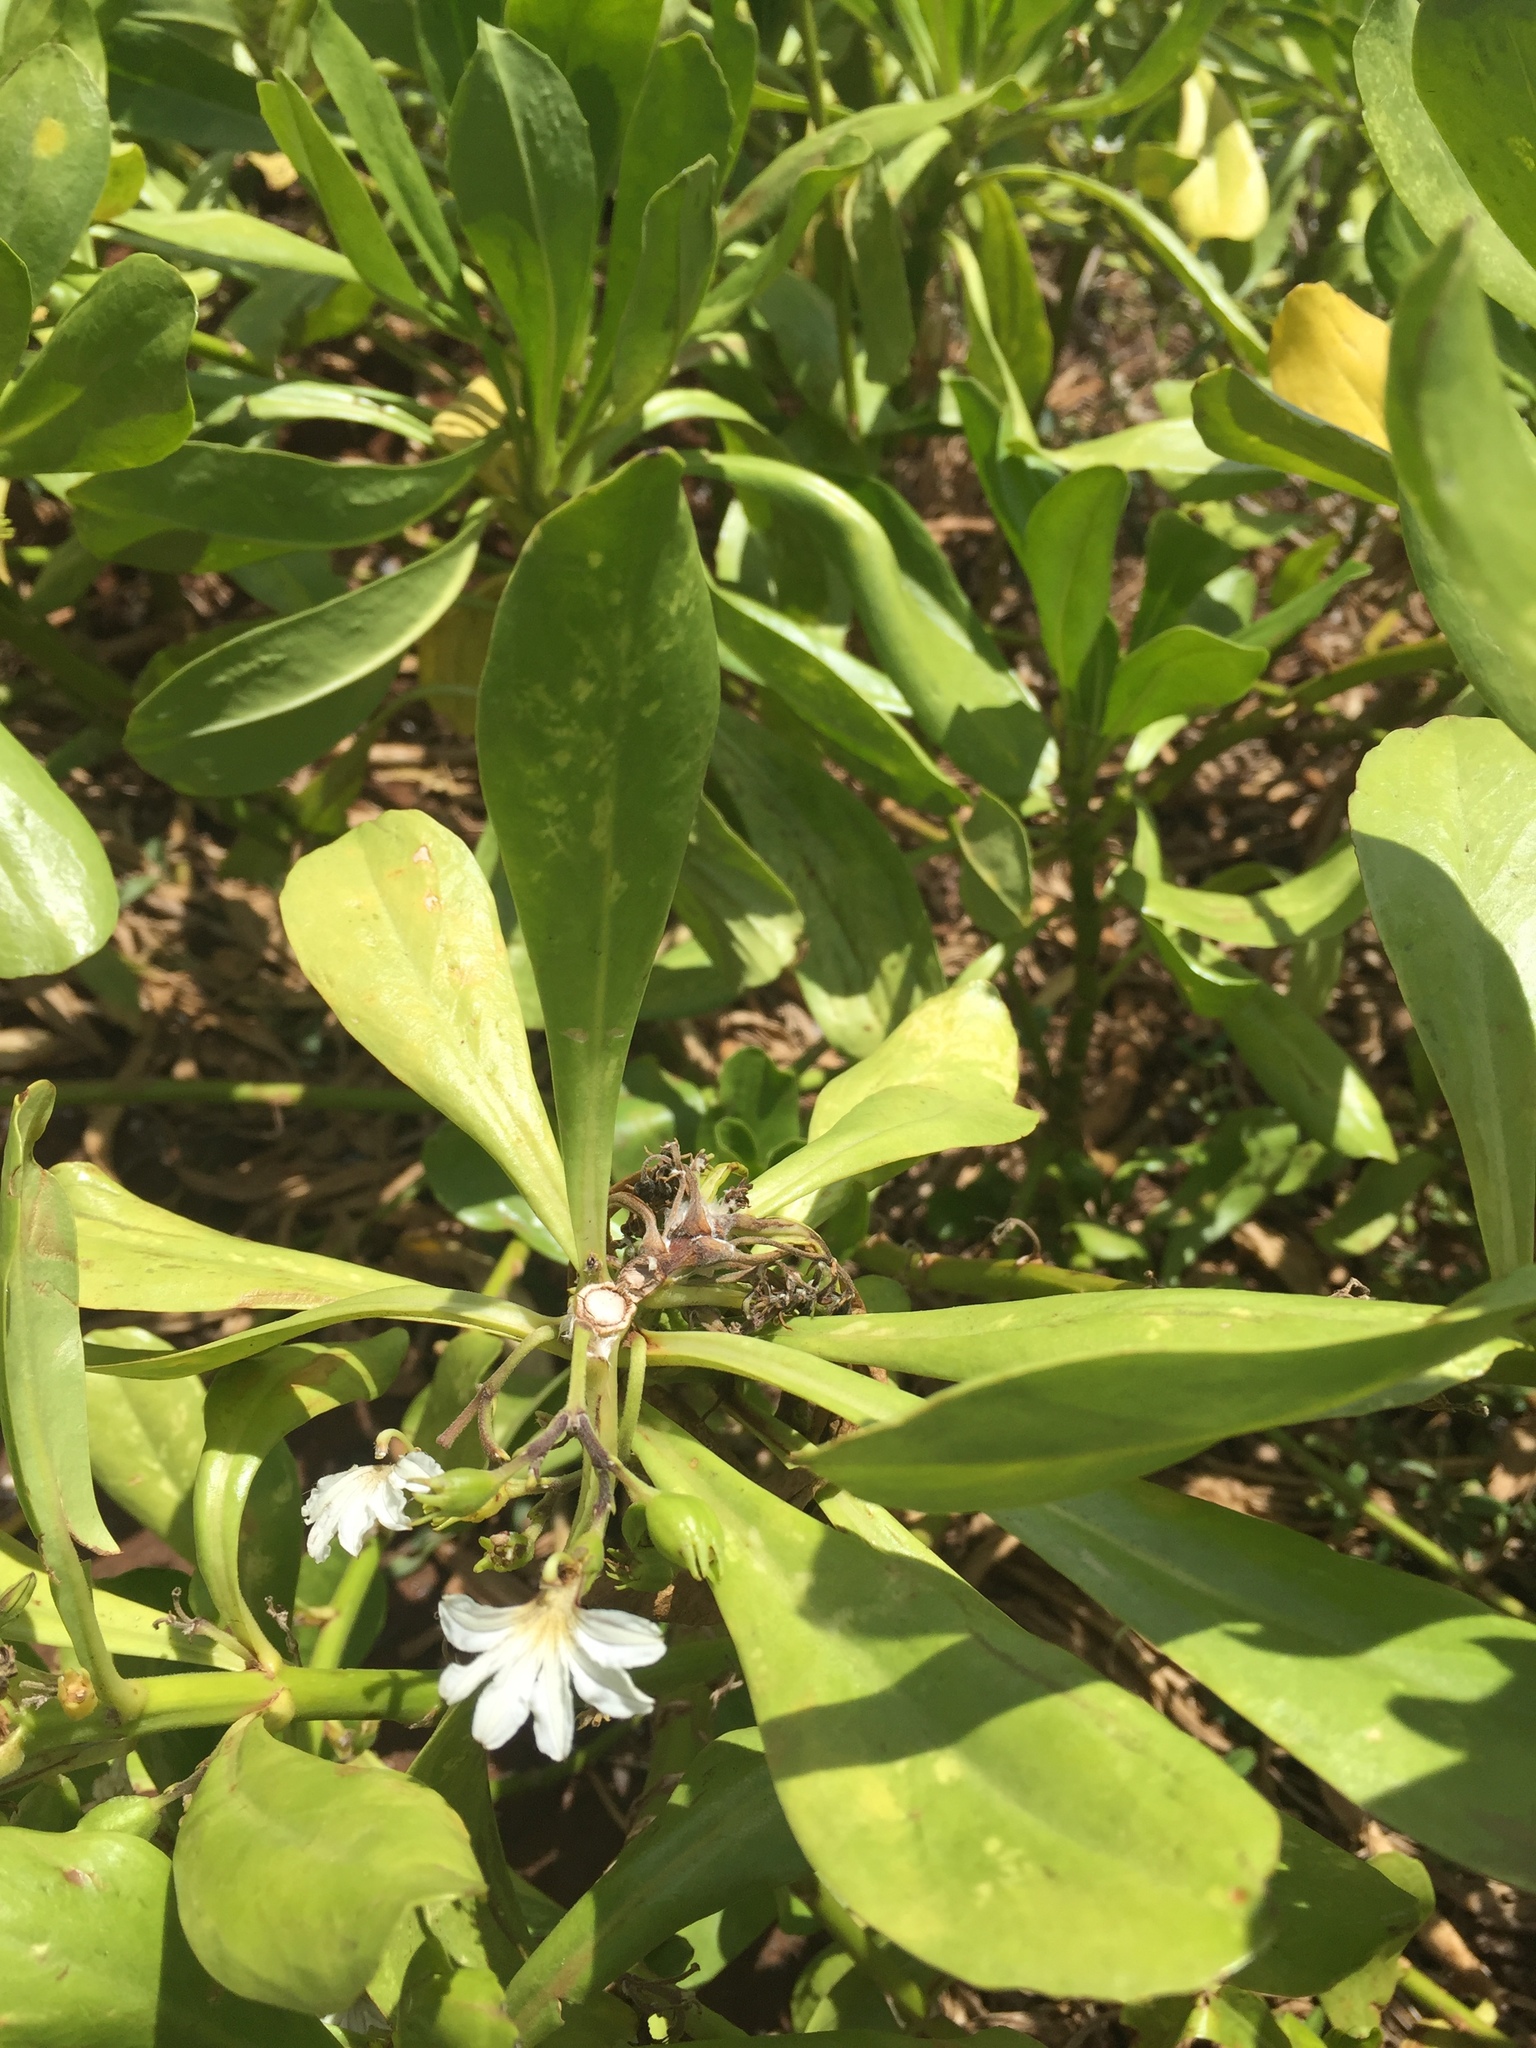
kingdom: Plantae
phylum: Tracheophyta
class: Magnoliopsida
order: Asterales
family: Goodeniaceae
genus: Scaevola
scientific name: Scaevola taccada
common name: Sea lettucetree
